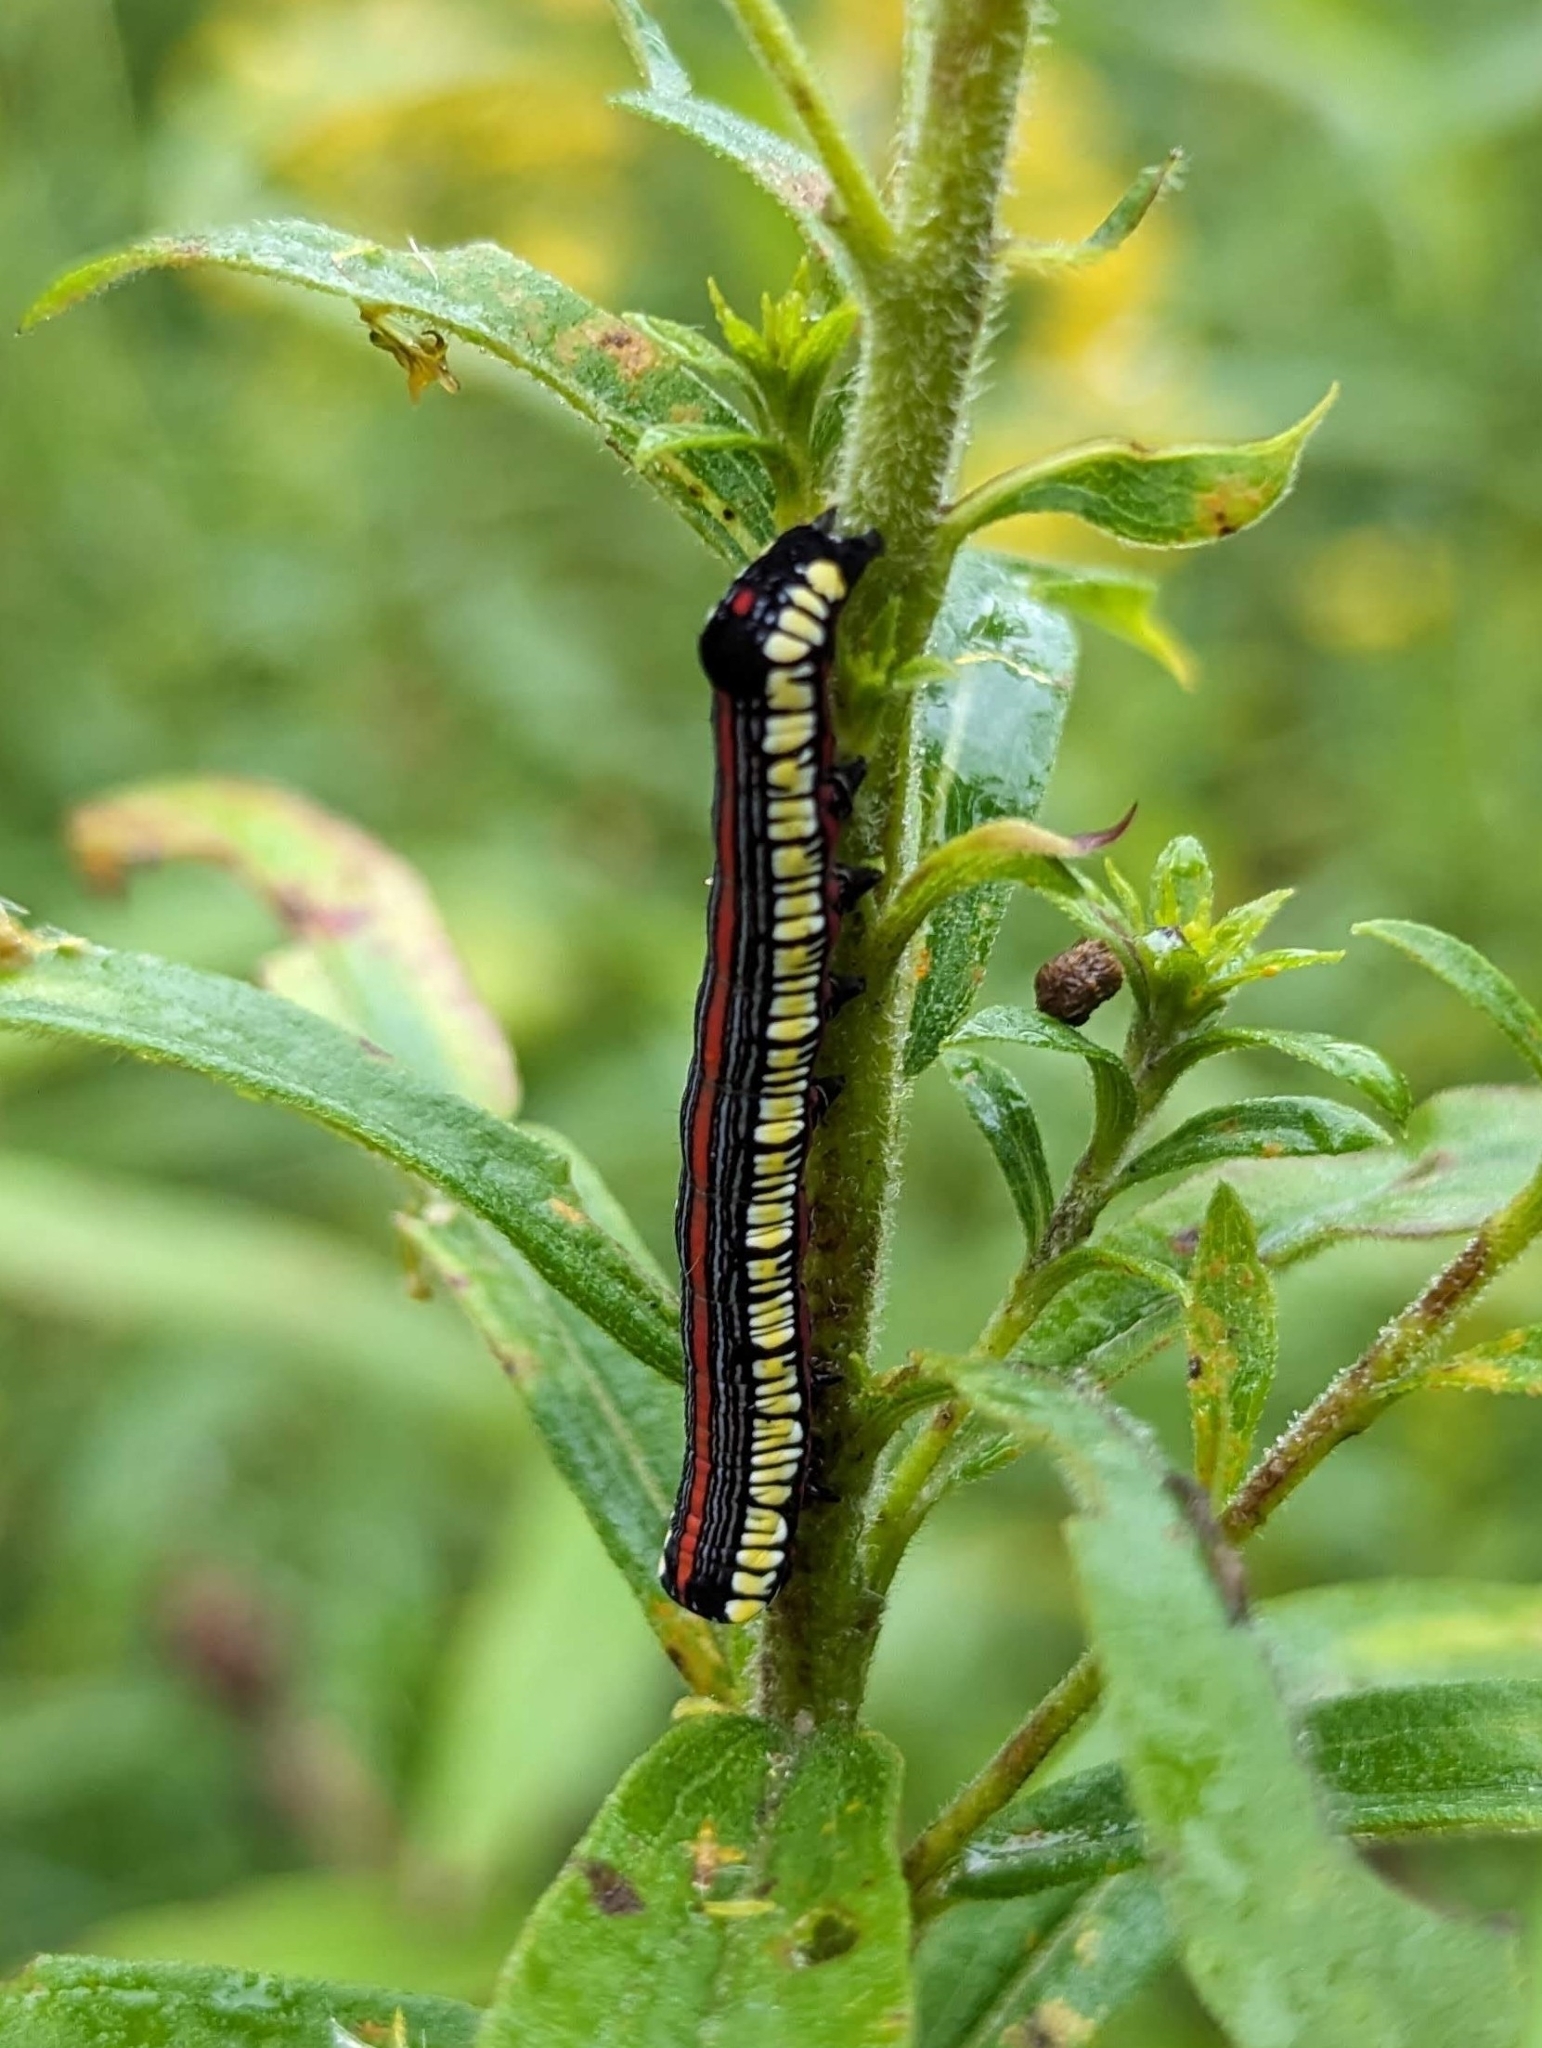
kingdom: Animalia
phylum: Arthropoda
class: Insecta
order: Lepidoptera
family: Noctuidae
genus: Cucullia
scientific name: Cucullia convexipennis
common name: Brown-hooded owlet
